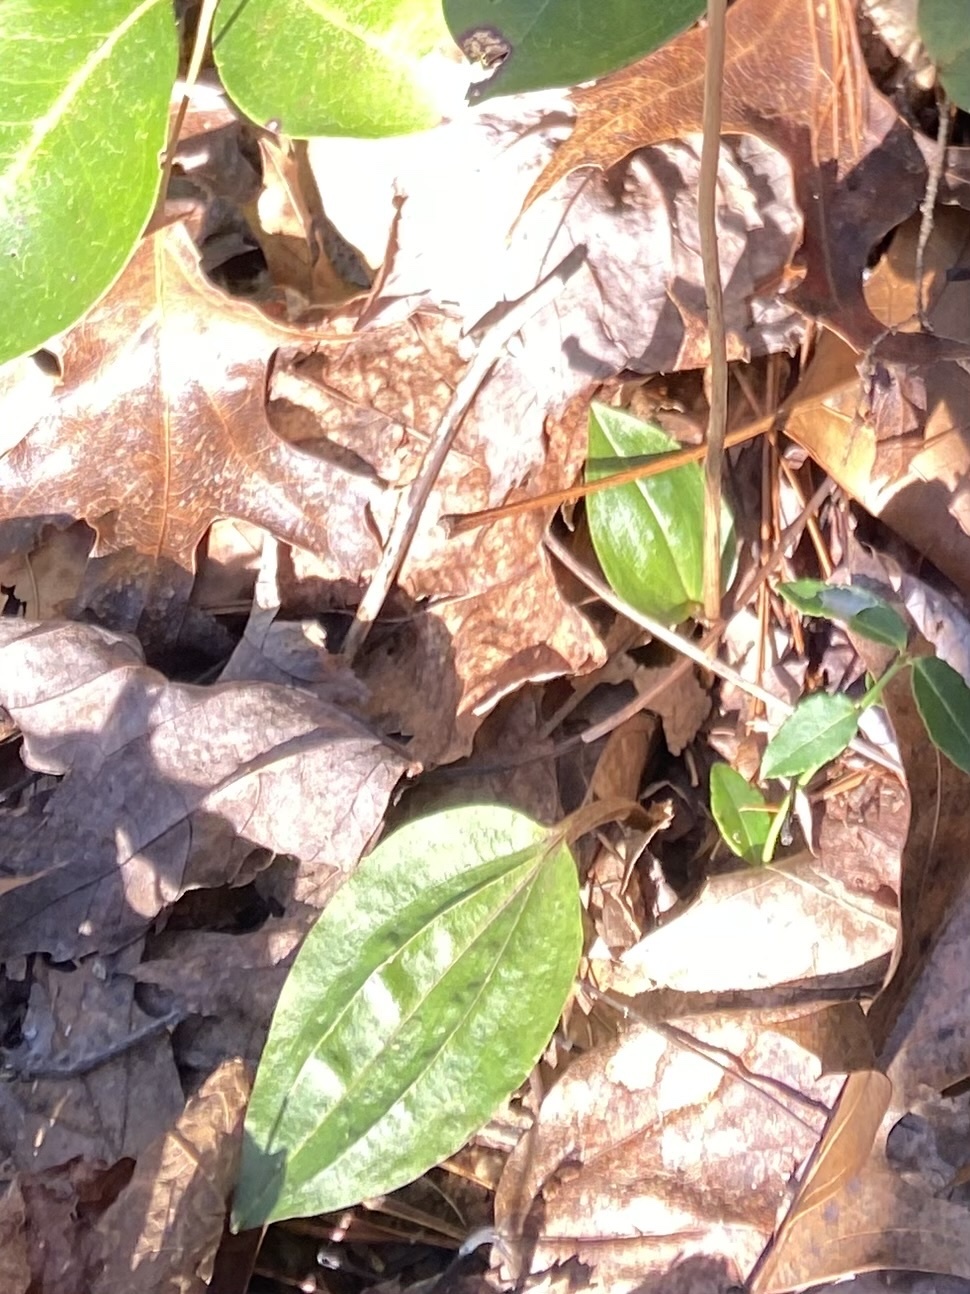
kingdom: Plantae
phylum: Tracheophyta
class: Liliopsida
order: Asparagales
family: Orchidaceae
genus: Tipularia
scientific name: Tipularia discolor
